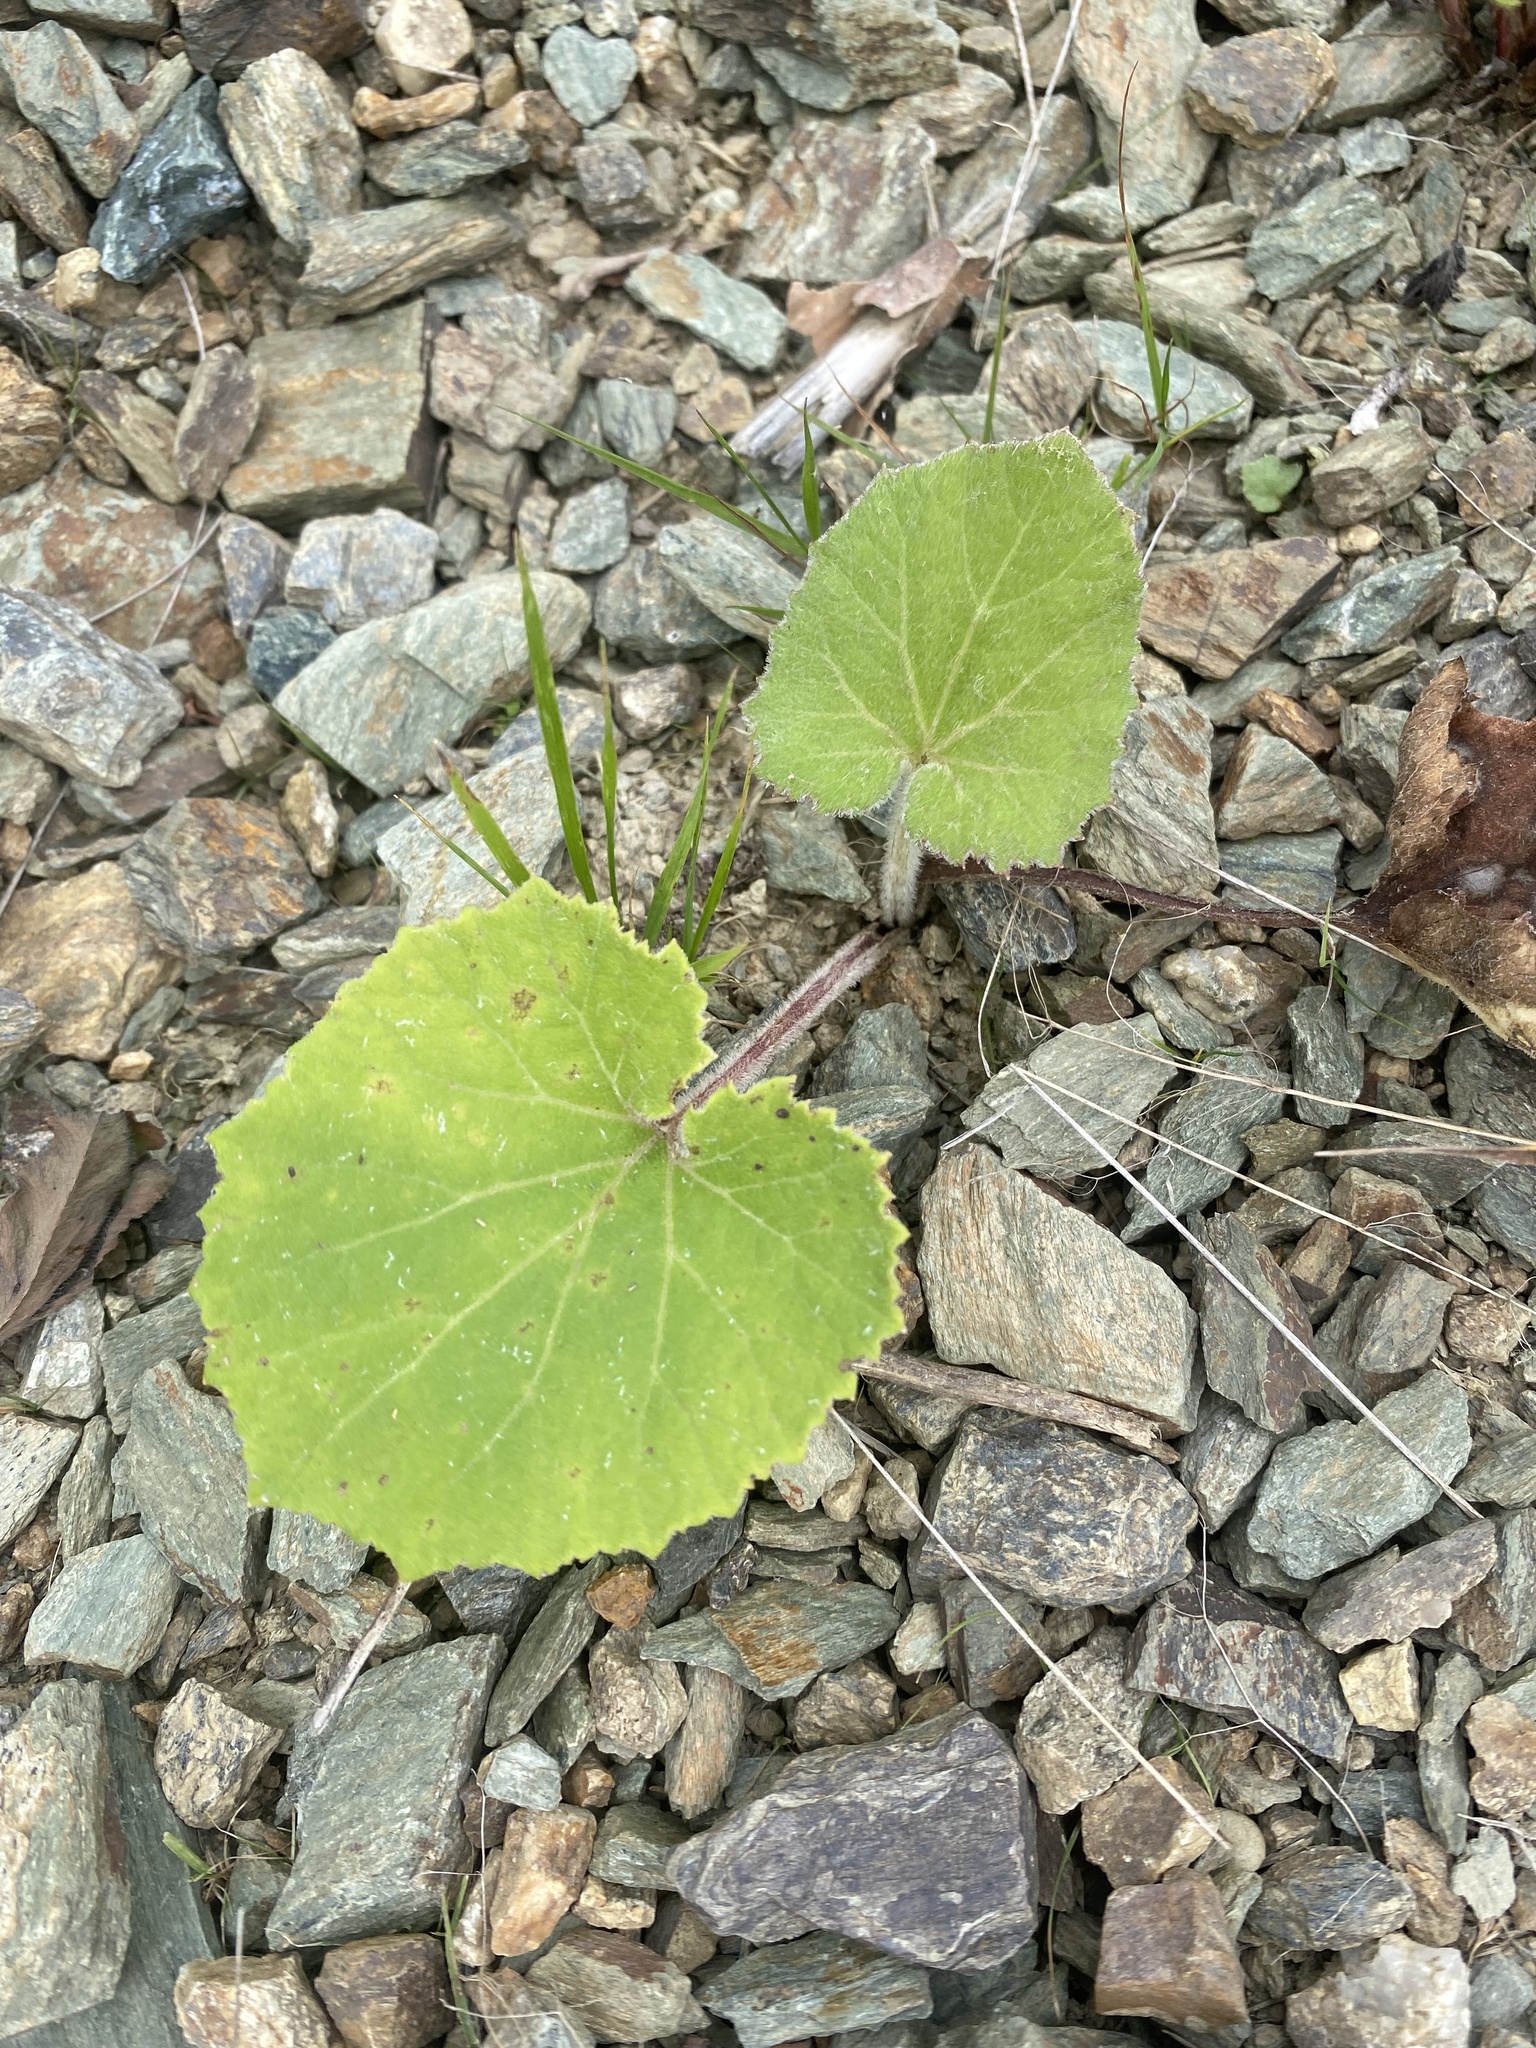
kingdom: Plantae
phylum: Tracheophyta
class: Magnoliopsida
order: Asterales
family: Asteraceae
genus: Tussilago
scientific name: Tussilago farfara
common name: Coltsfoot
